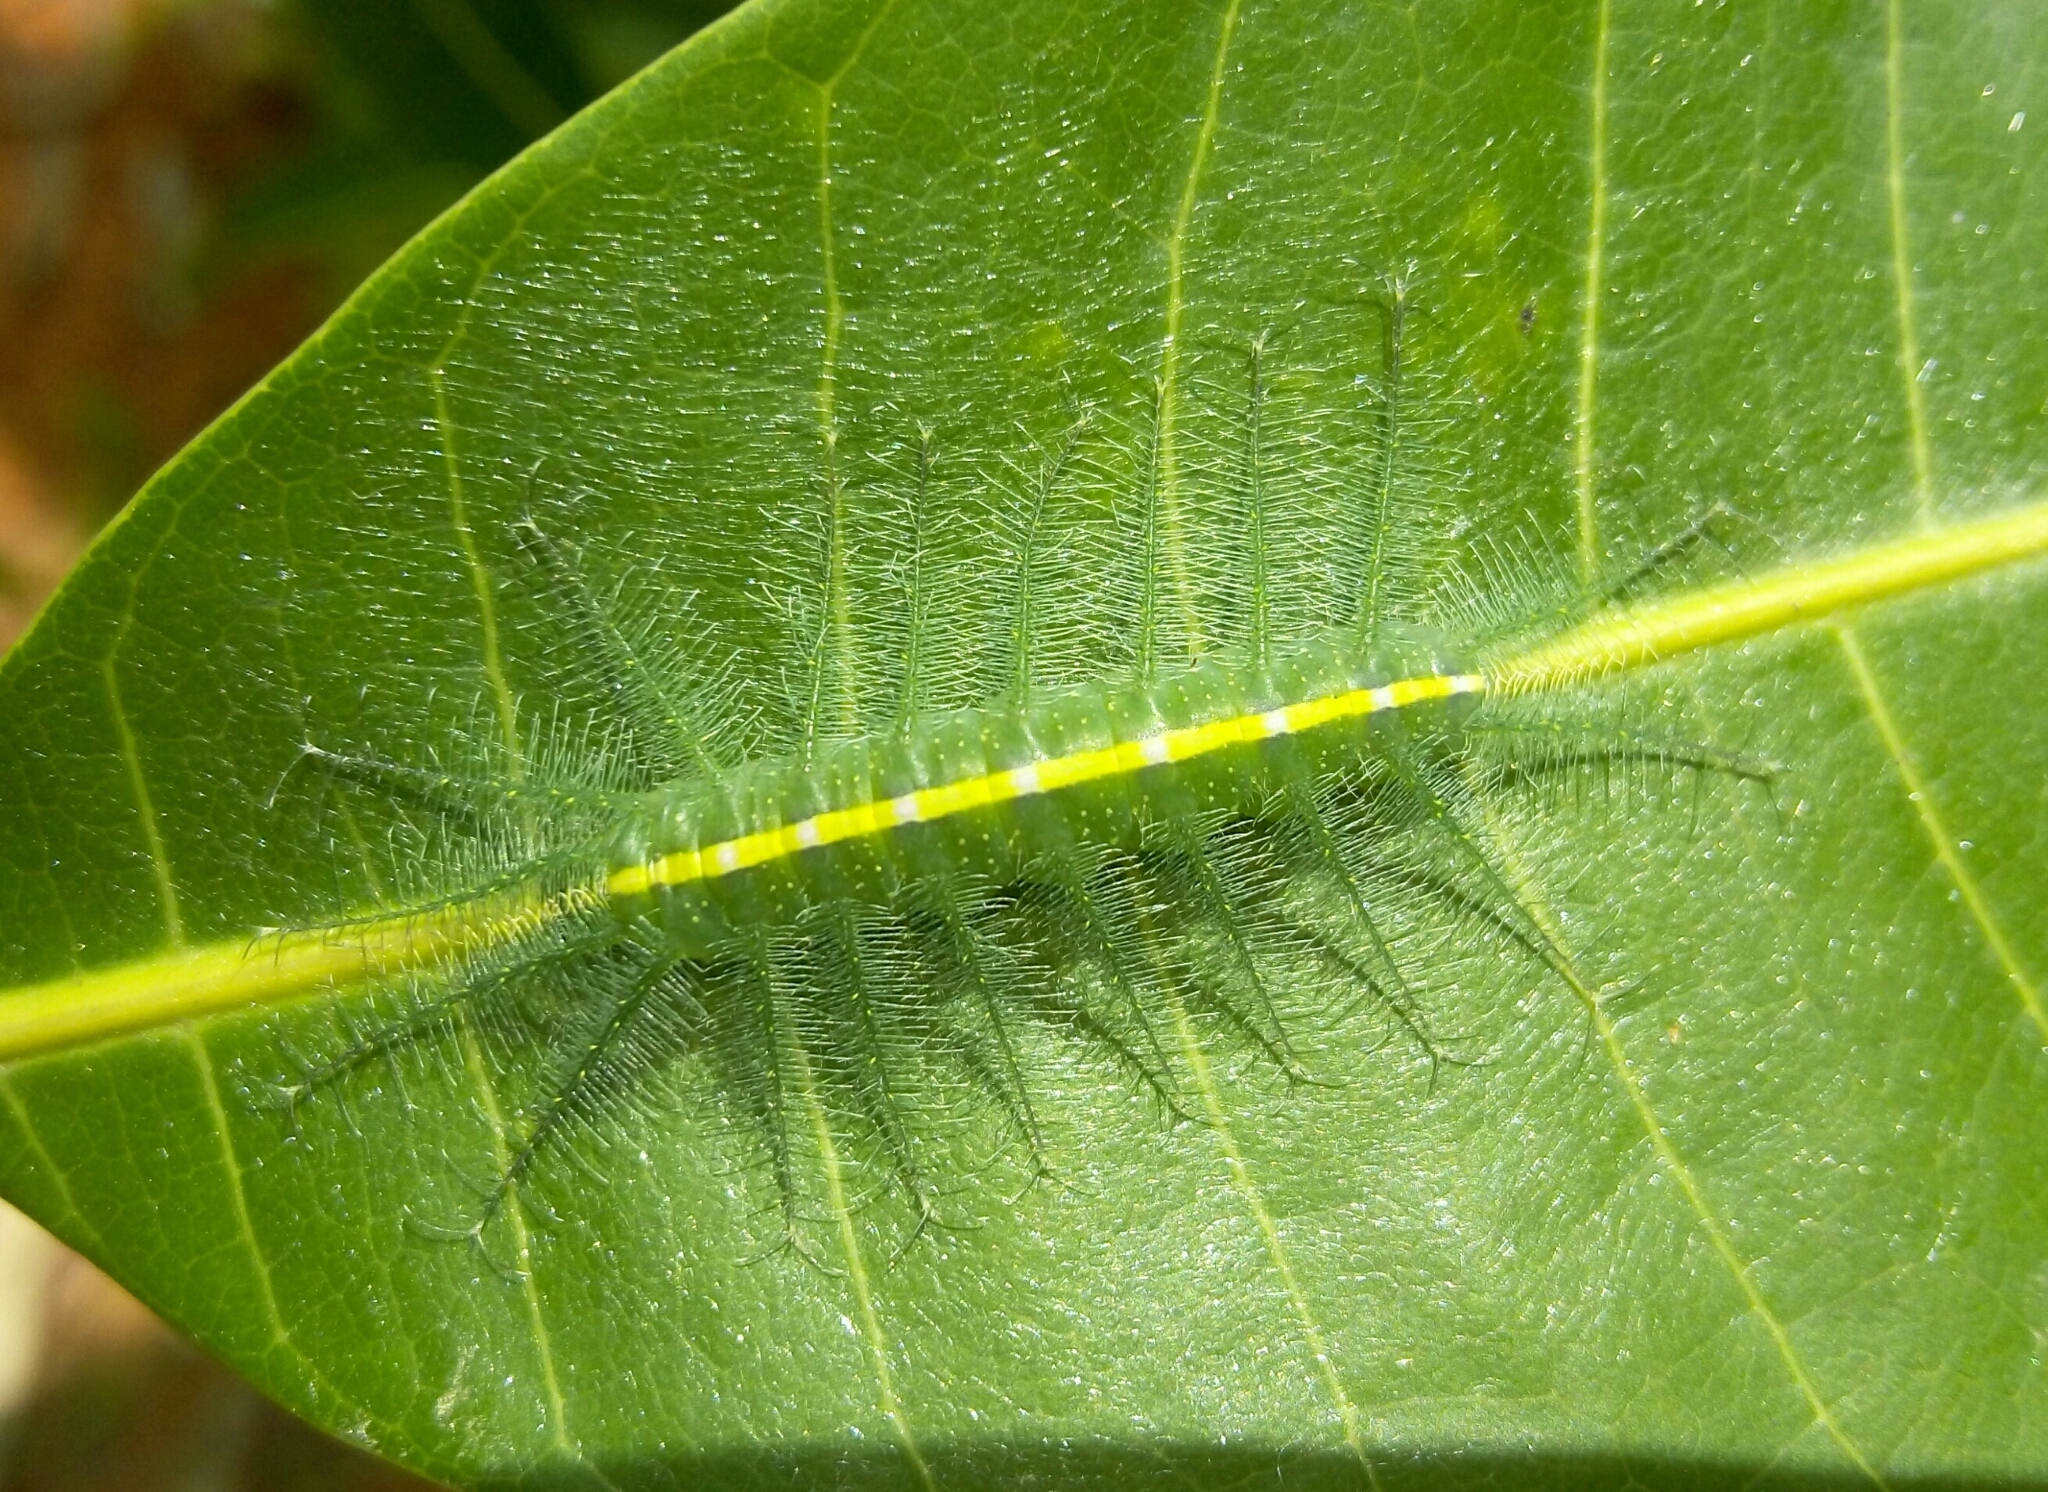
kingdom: Animalia
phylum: Arthropoda
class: Insecta
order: Lepidoptera
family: Nymphalidae
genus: Euthalia
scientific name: Euthalia aconthea
